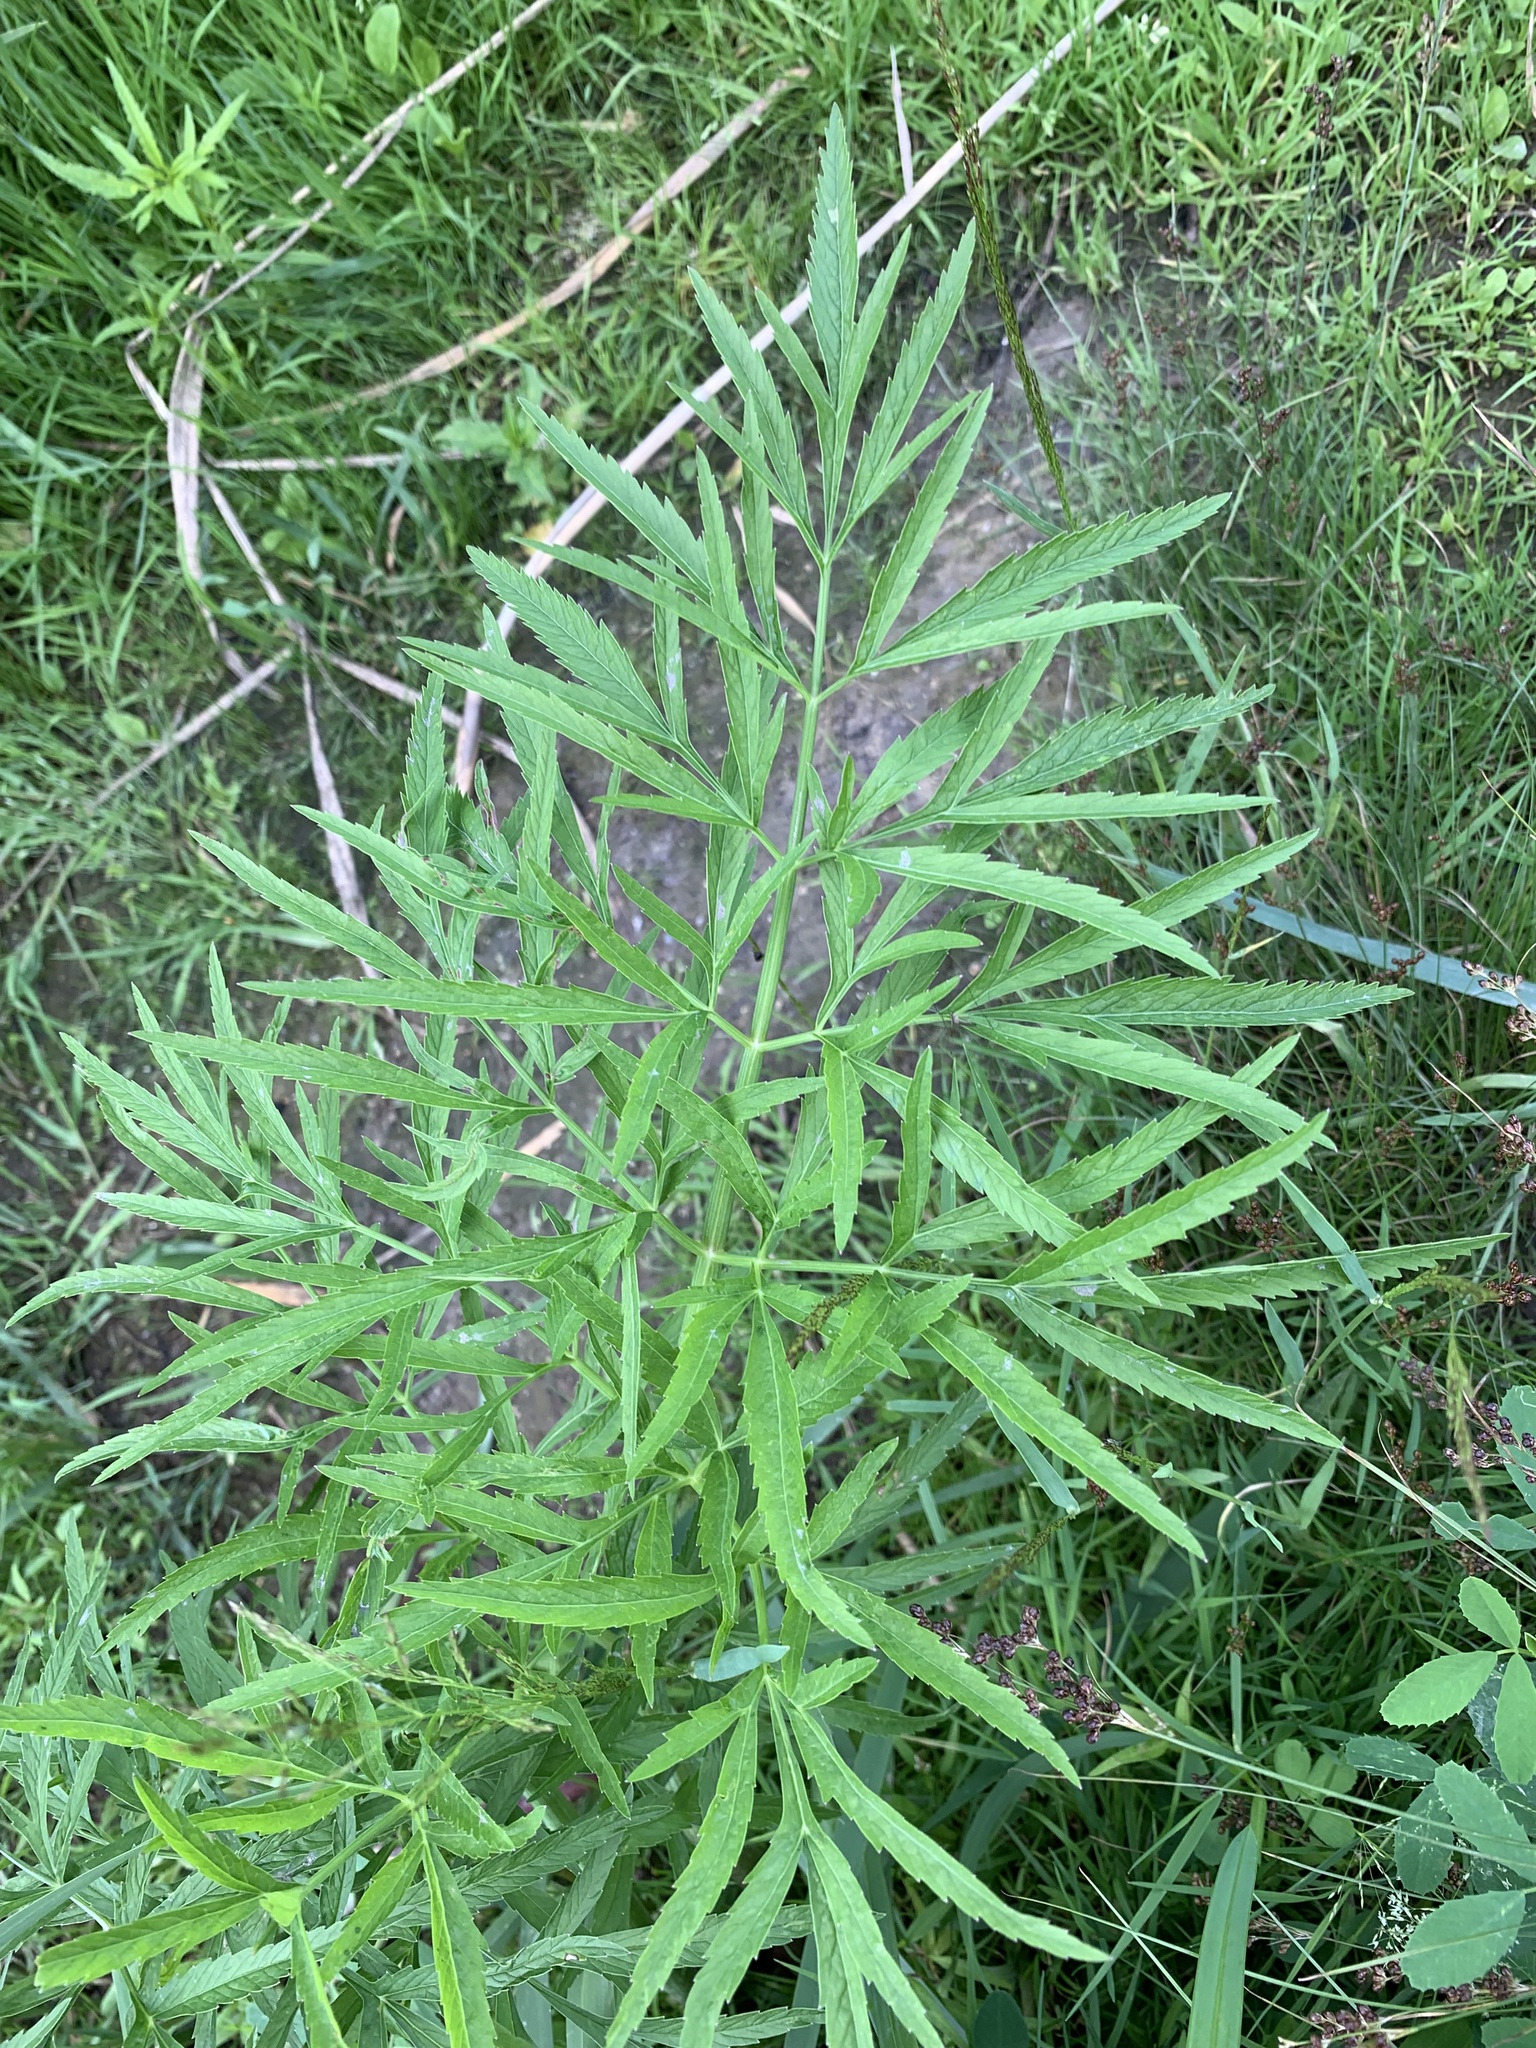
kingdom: Plantae
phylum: Tracheophyta
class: Magnoliopsida
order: Apiales
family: Apiaceae
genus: Cicuta
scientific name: Cicuta virosa
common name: Cowbane
